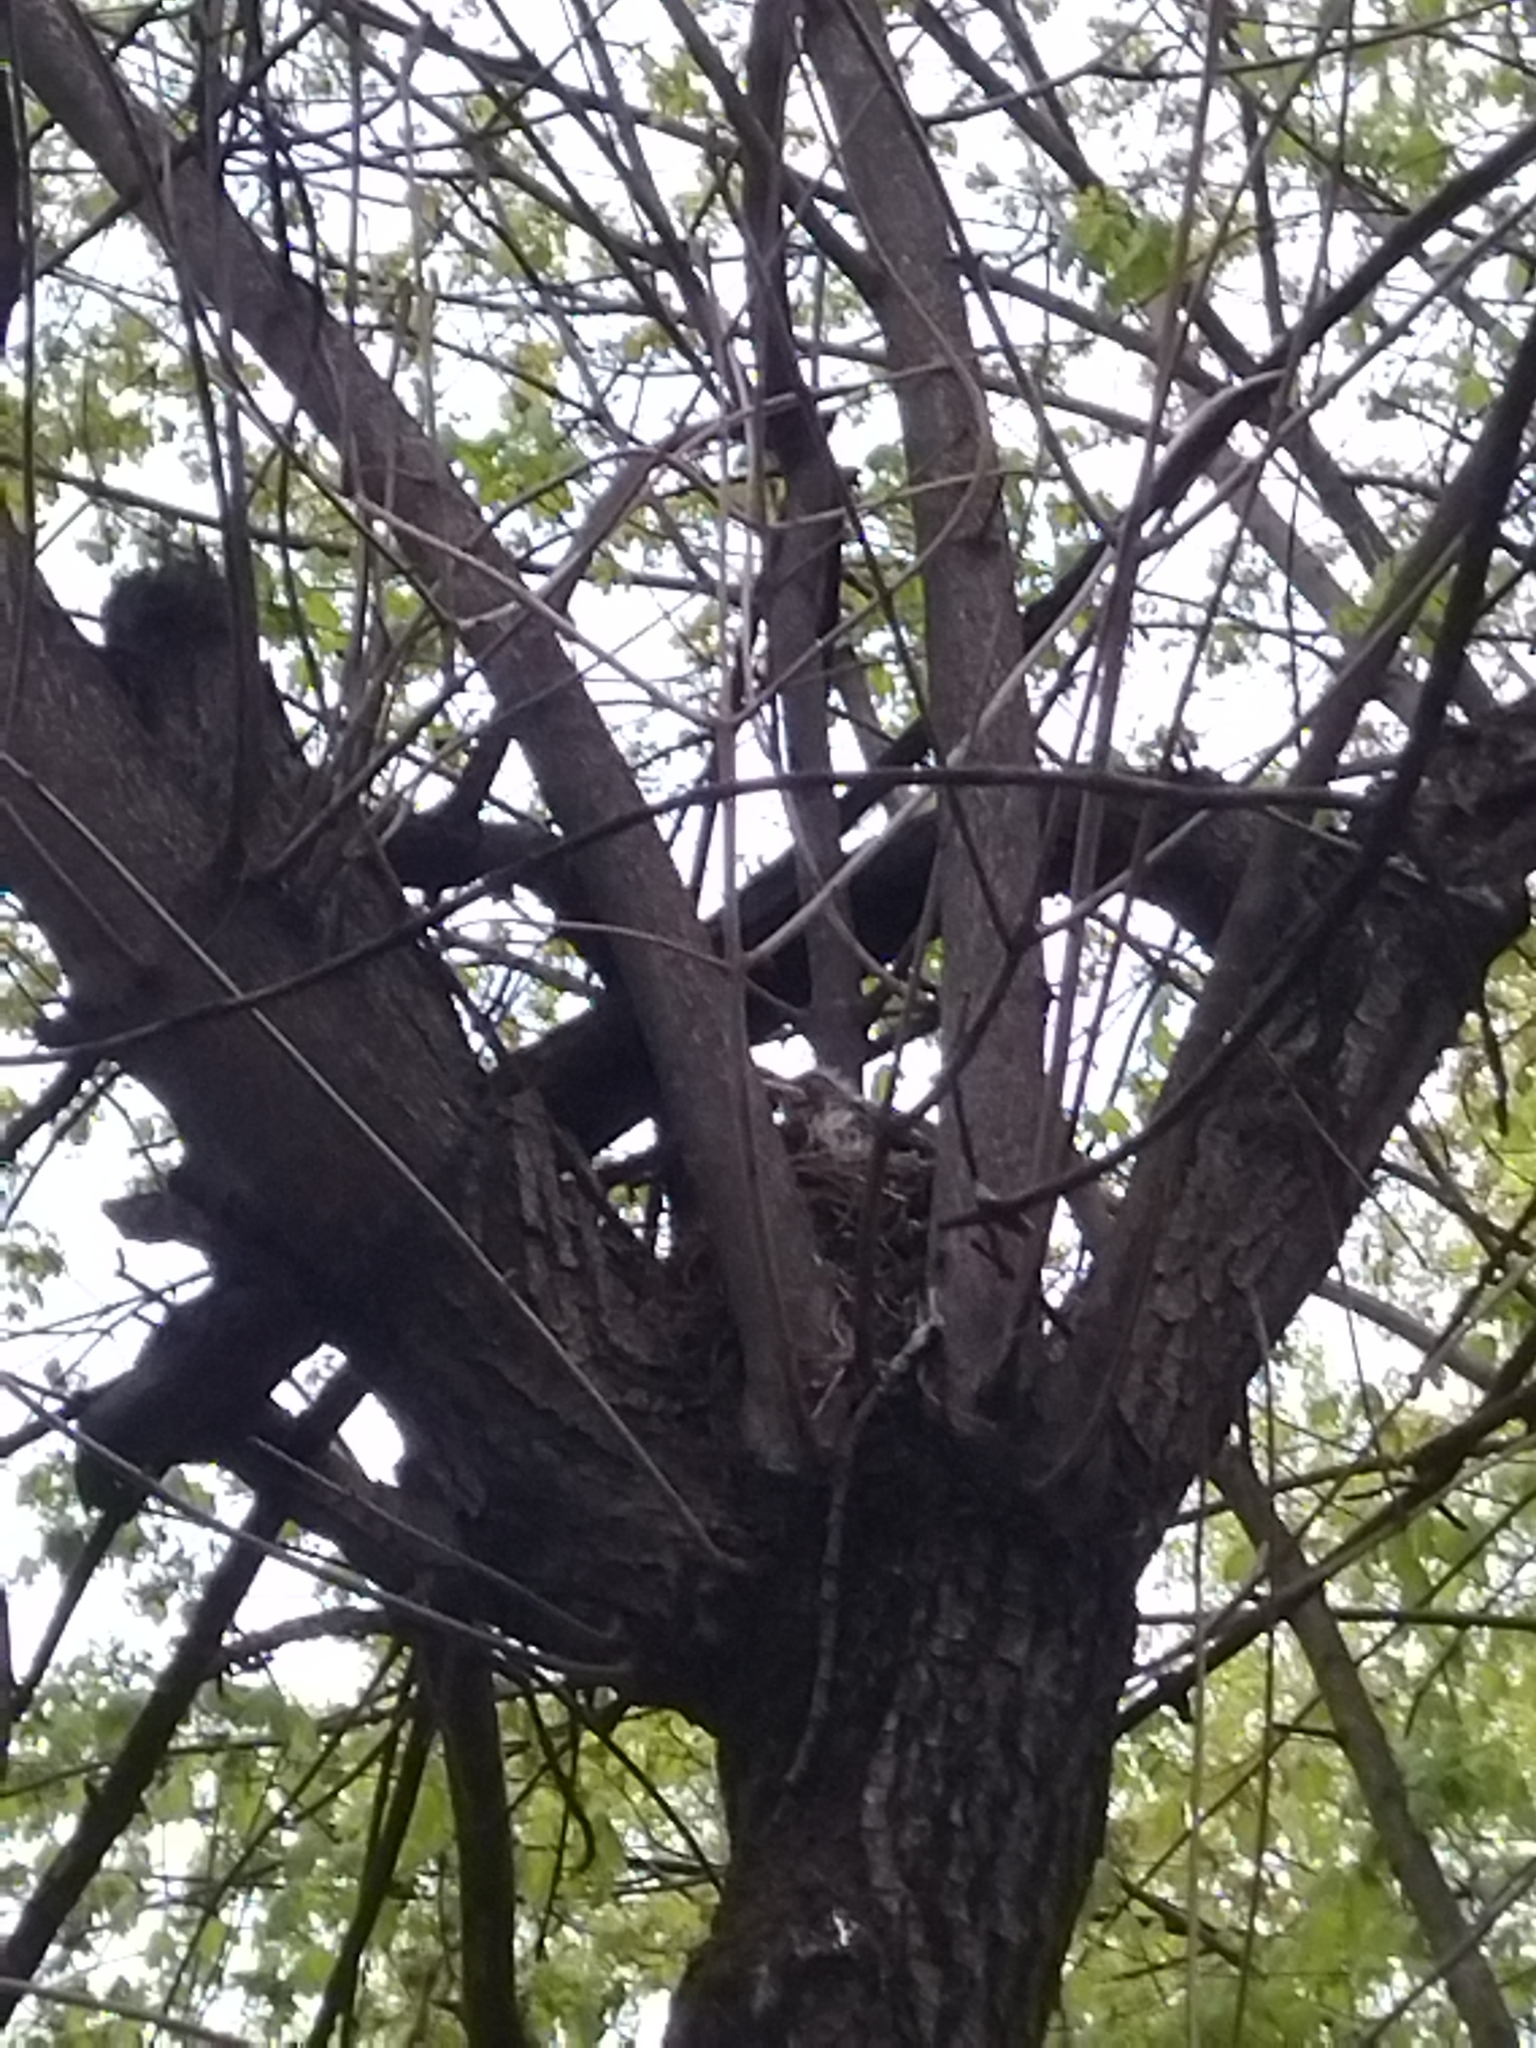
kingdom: Animalia
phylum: Chordata
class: Aves
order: Passeriformes
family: Turdidae
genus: Turdus
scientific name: Turdus pilaris
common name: Fieldfare
